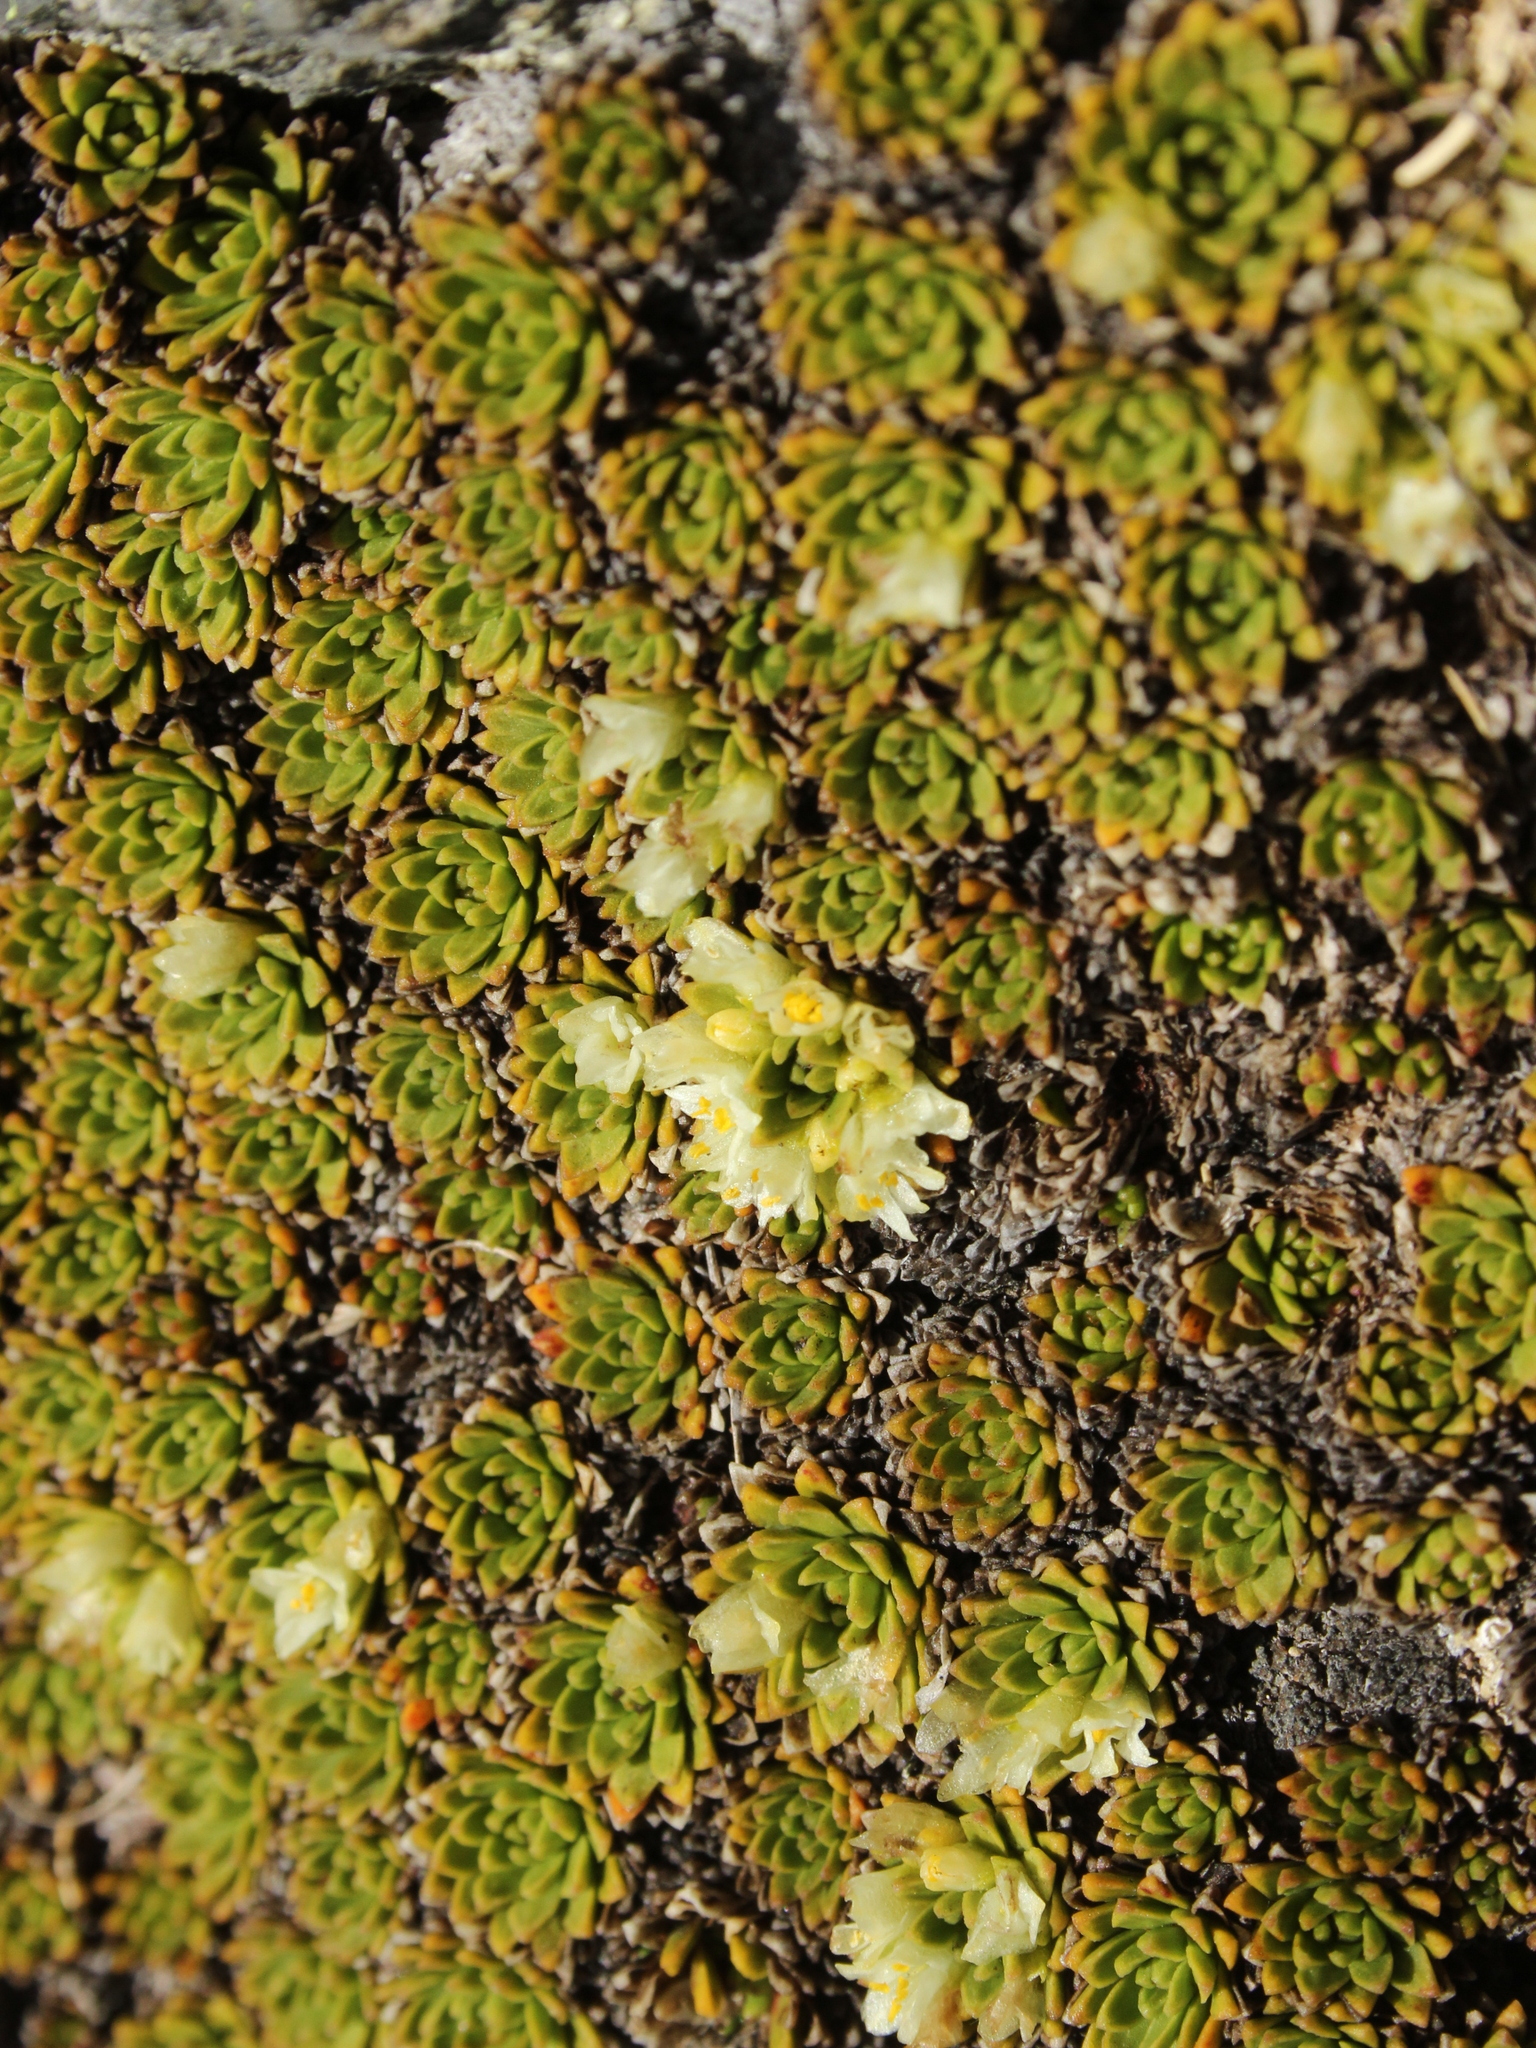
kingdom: Plantae
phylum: Tracheophyta
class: Magnoliopsida
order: Caryophyllales
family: Montiaceae
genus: Hectorella
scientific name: Hectorella caespitosa
